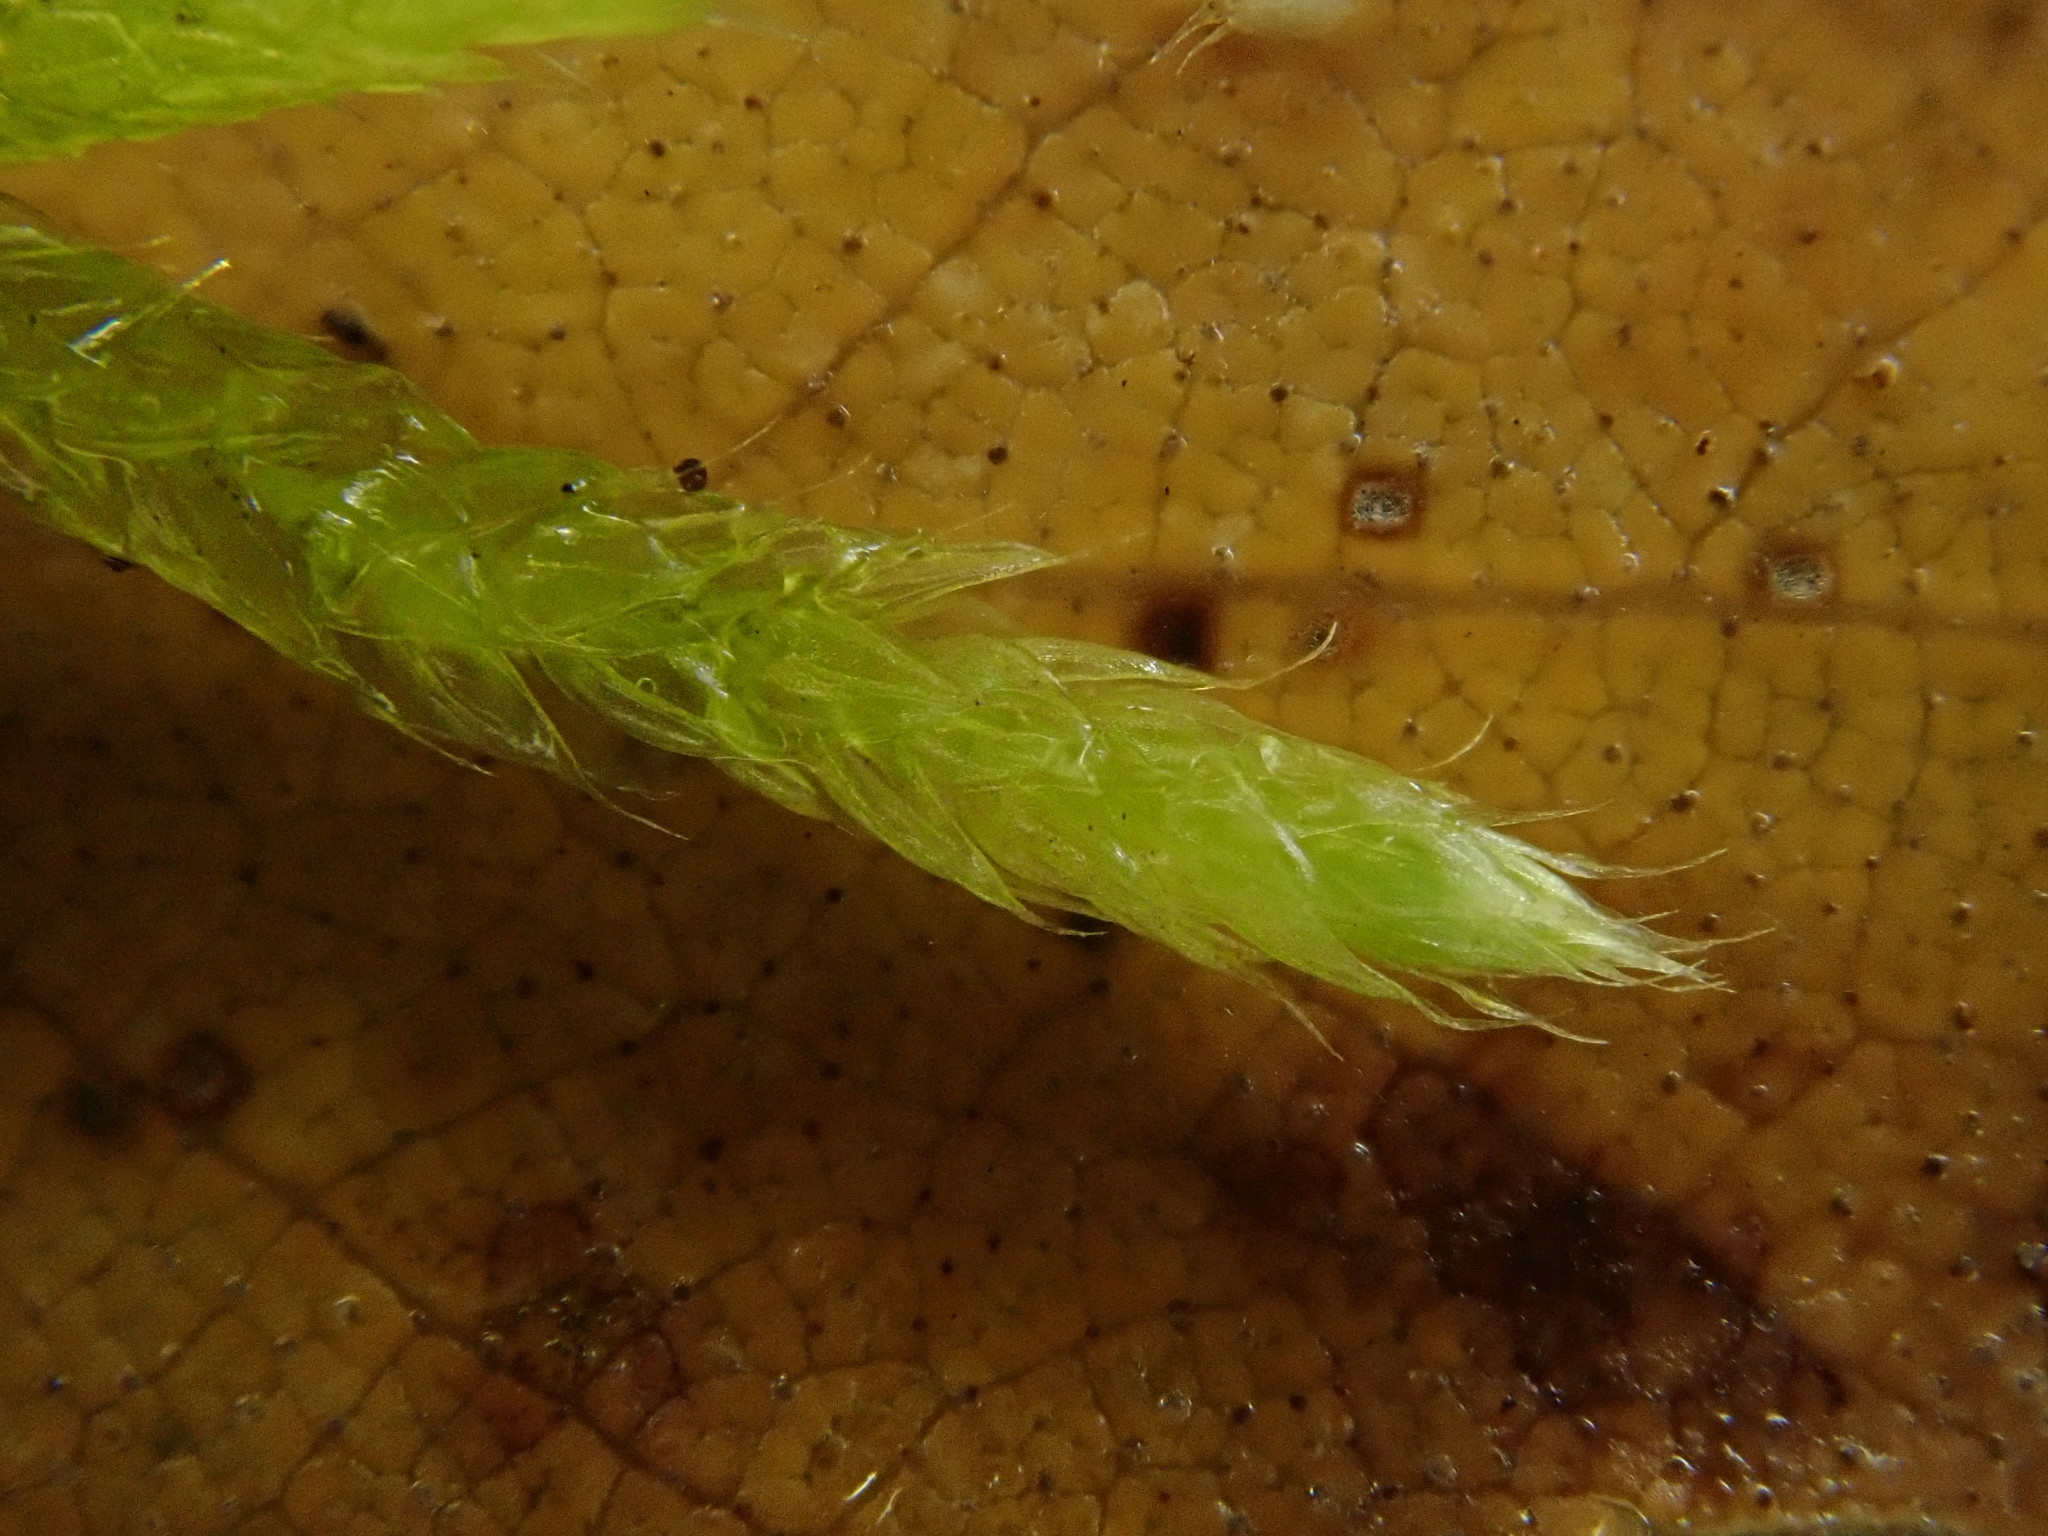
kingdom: Plantae
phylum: Bryophyta
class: Bryopsida
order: Hypnales
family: Brachytheciaceae
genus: Brachythecium
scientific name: Brachythecium albicans
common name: Whitish ragged moss
